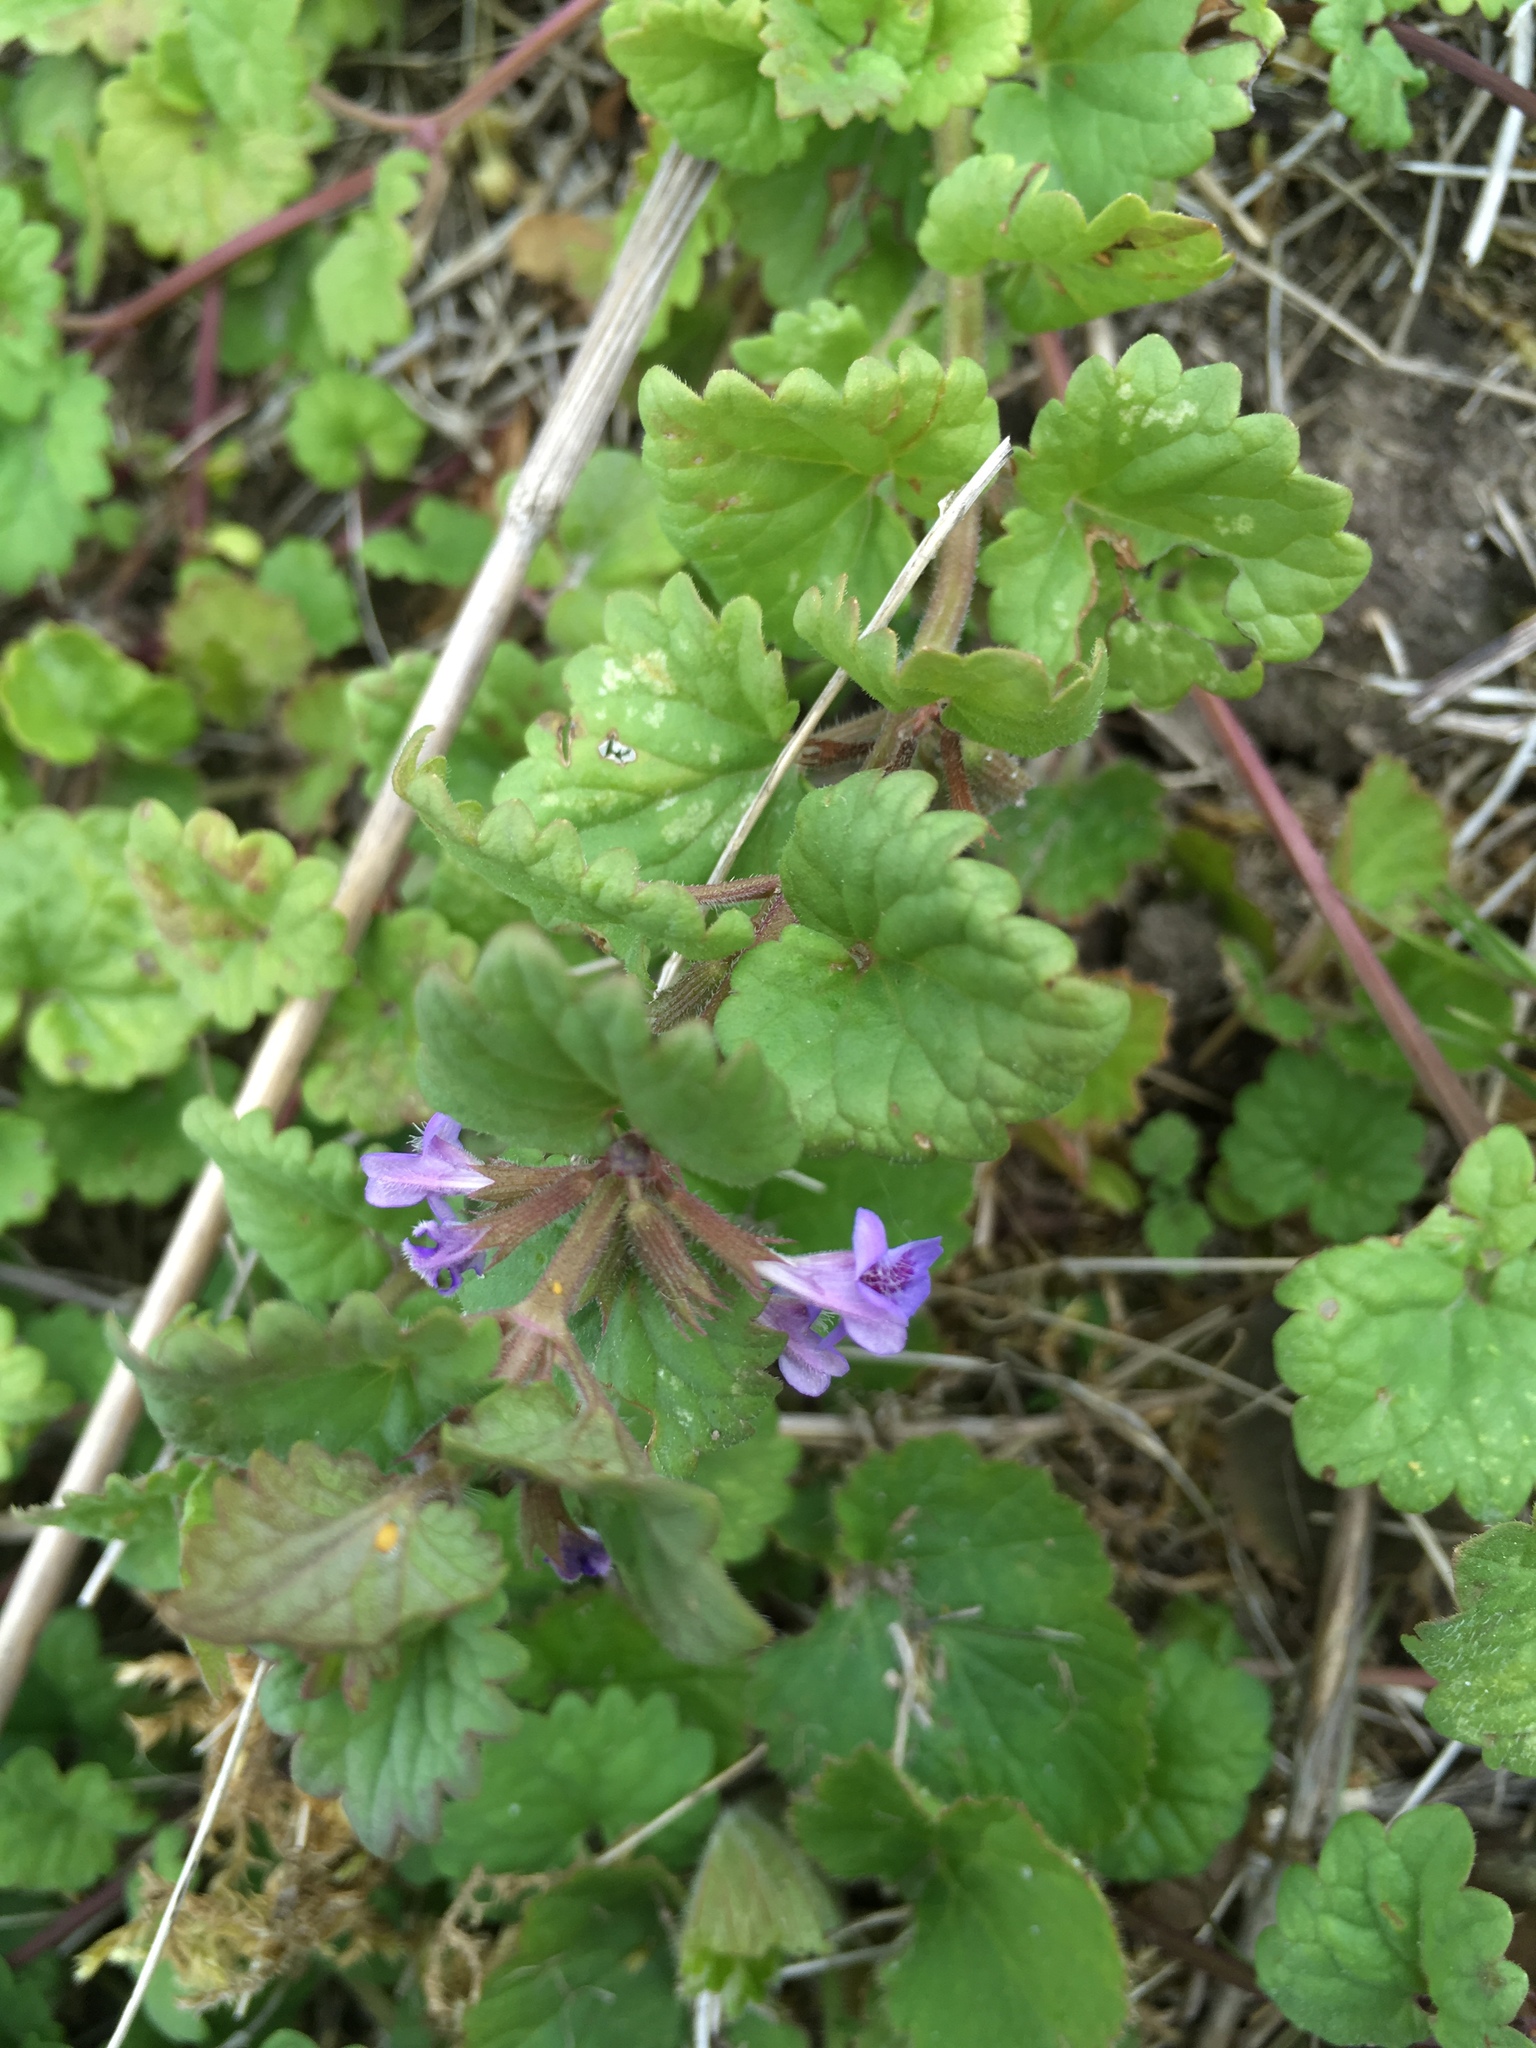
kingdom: Plantae
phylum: Tracheophyta
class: Magnoliopsida
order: Lamiales
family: Lamiaceae
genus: Glechoma
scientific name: Glechoma hederacea
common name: Ground ivy
